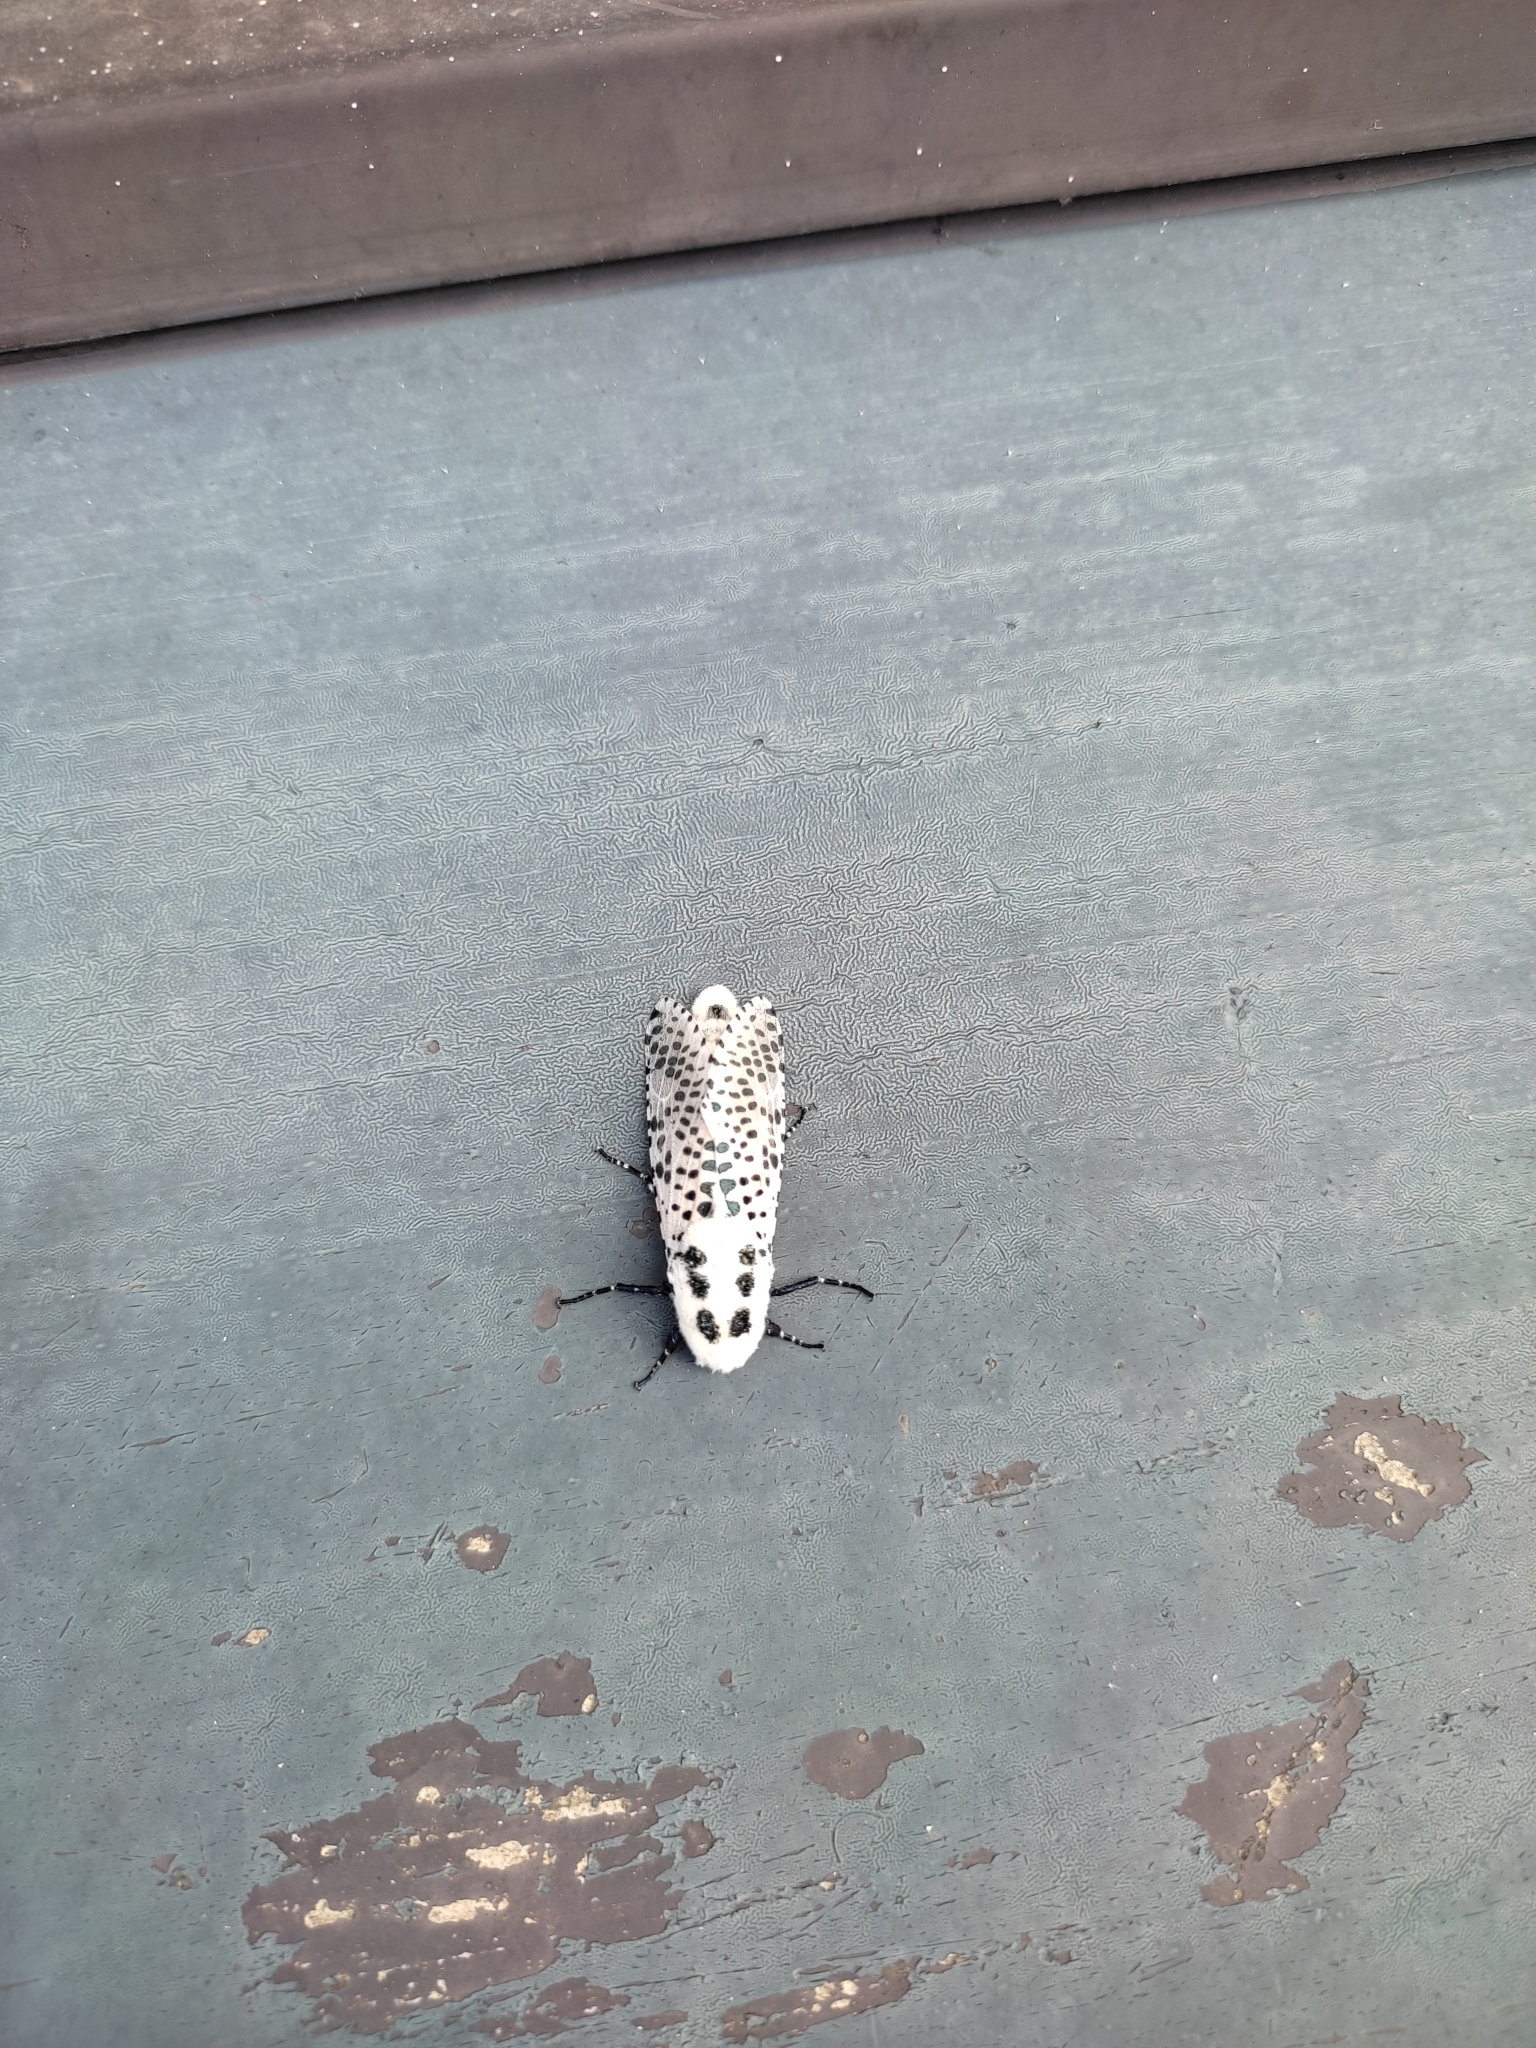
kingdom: Animalia
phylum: Arthropoda
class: Insecta
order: Lepidoptera
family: Cossidae
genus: Zeuzera
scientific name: Zeuzera pyrina
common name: Leopard moth
